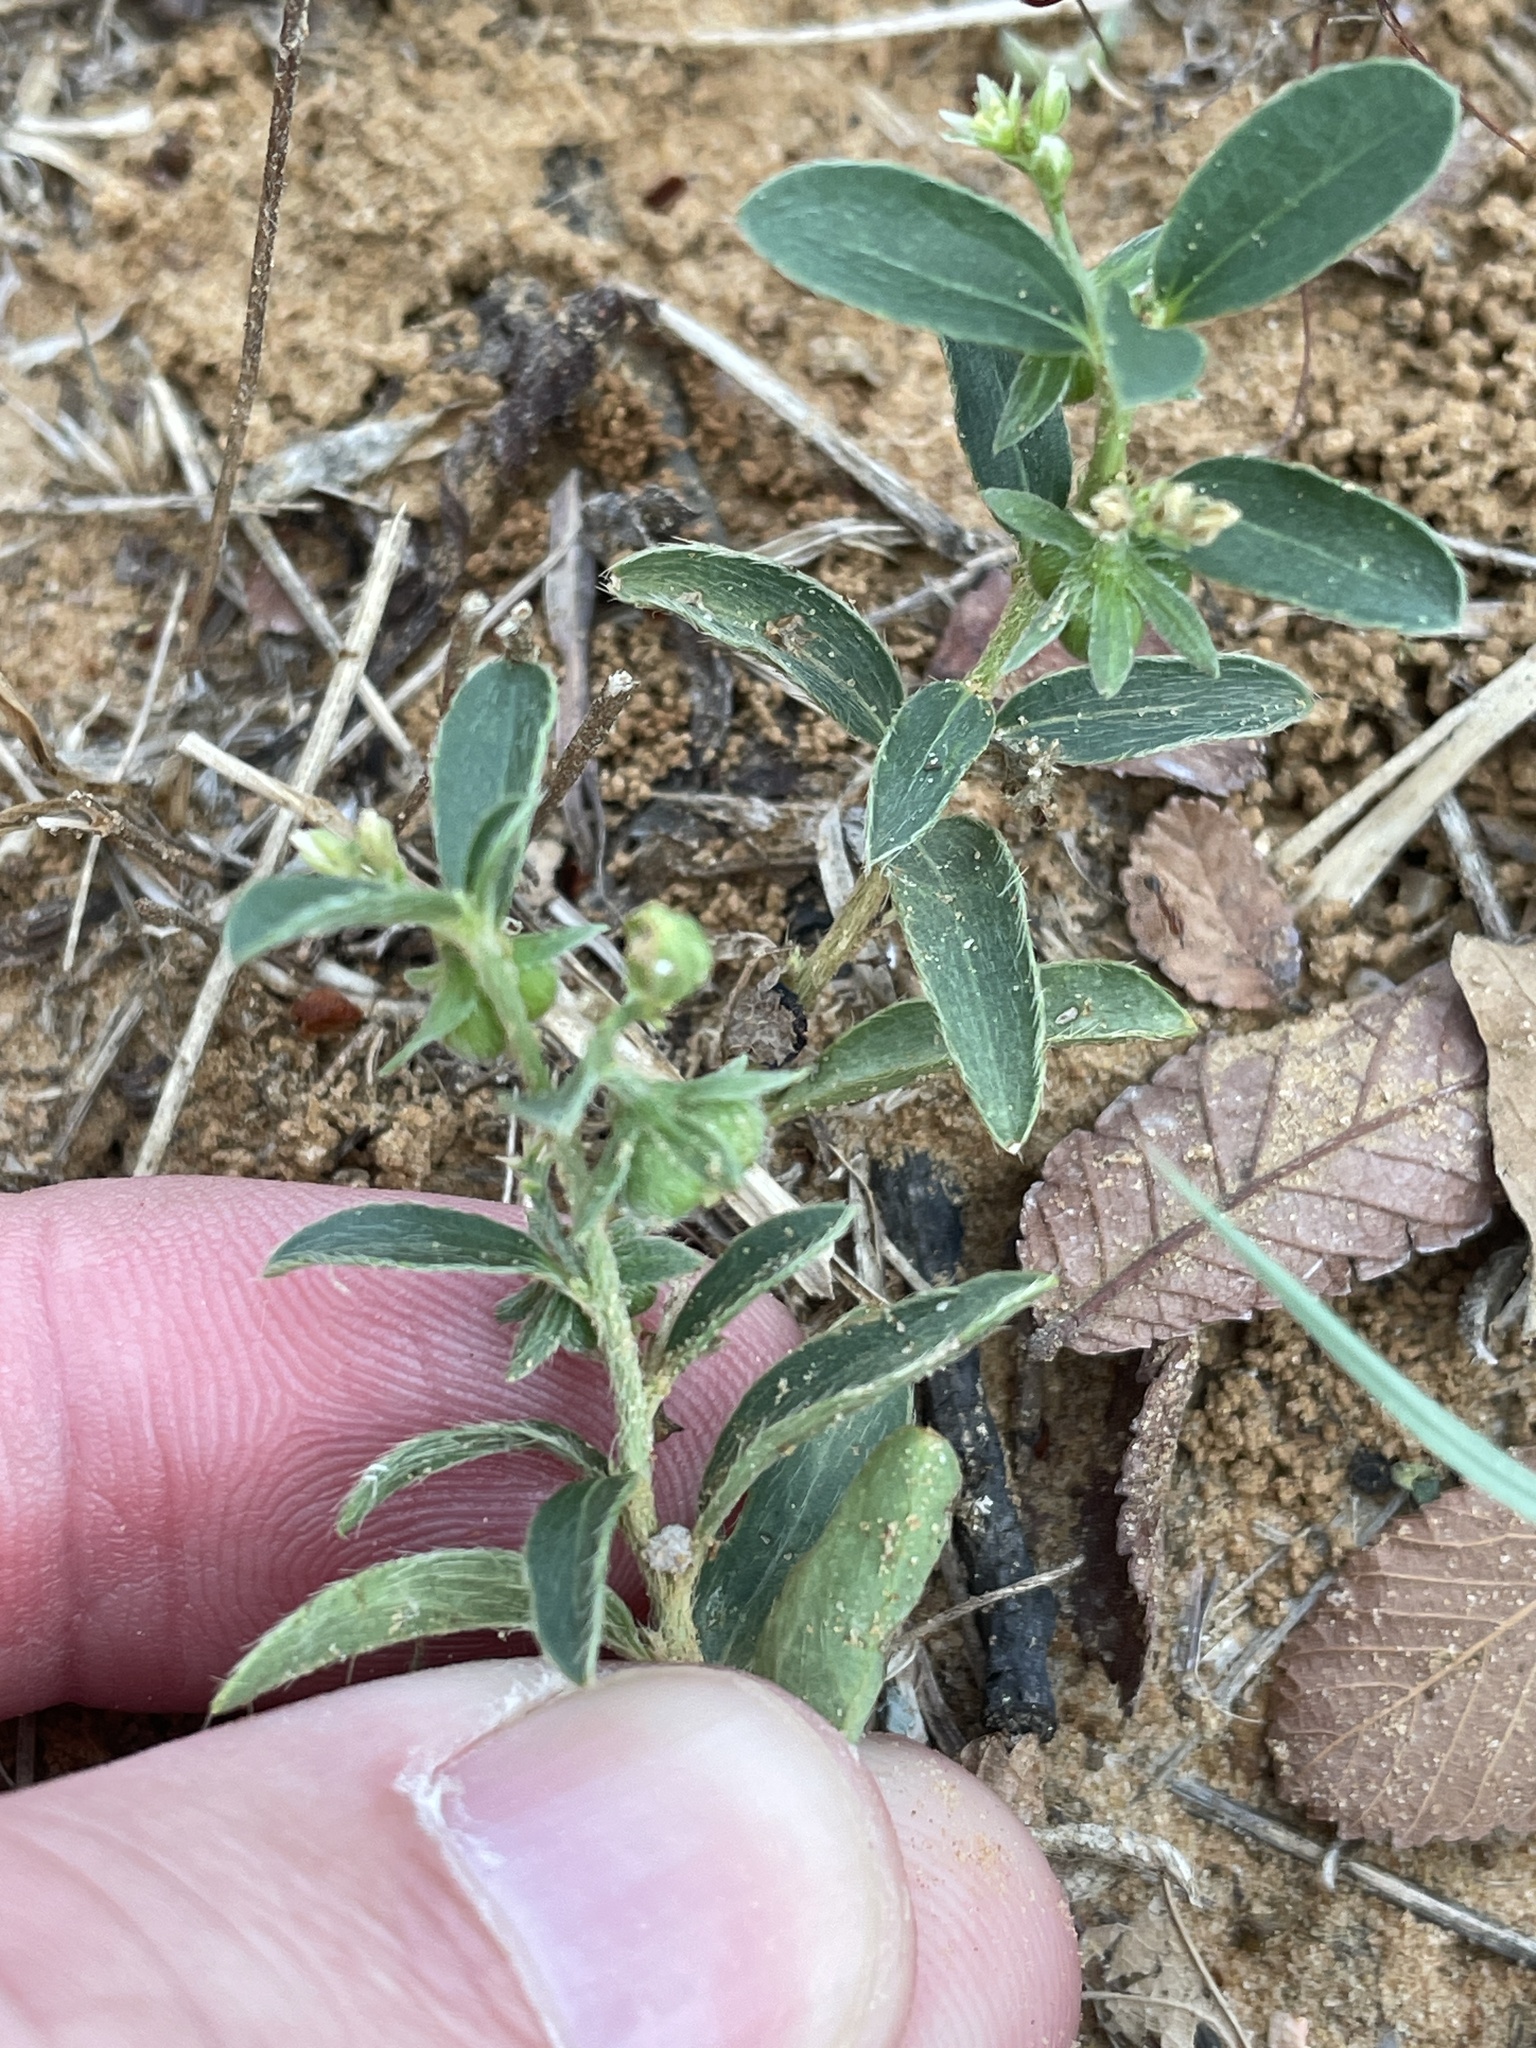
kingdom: Plantae
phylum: Tracheophyta
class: Magnoliopsida
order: Malpighiales
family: Euphorbiaceae
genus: Ditaxis
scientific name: Ditaxis humilis
